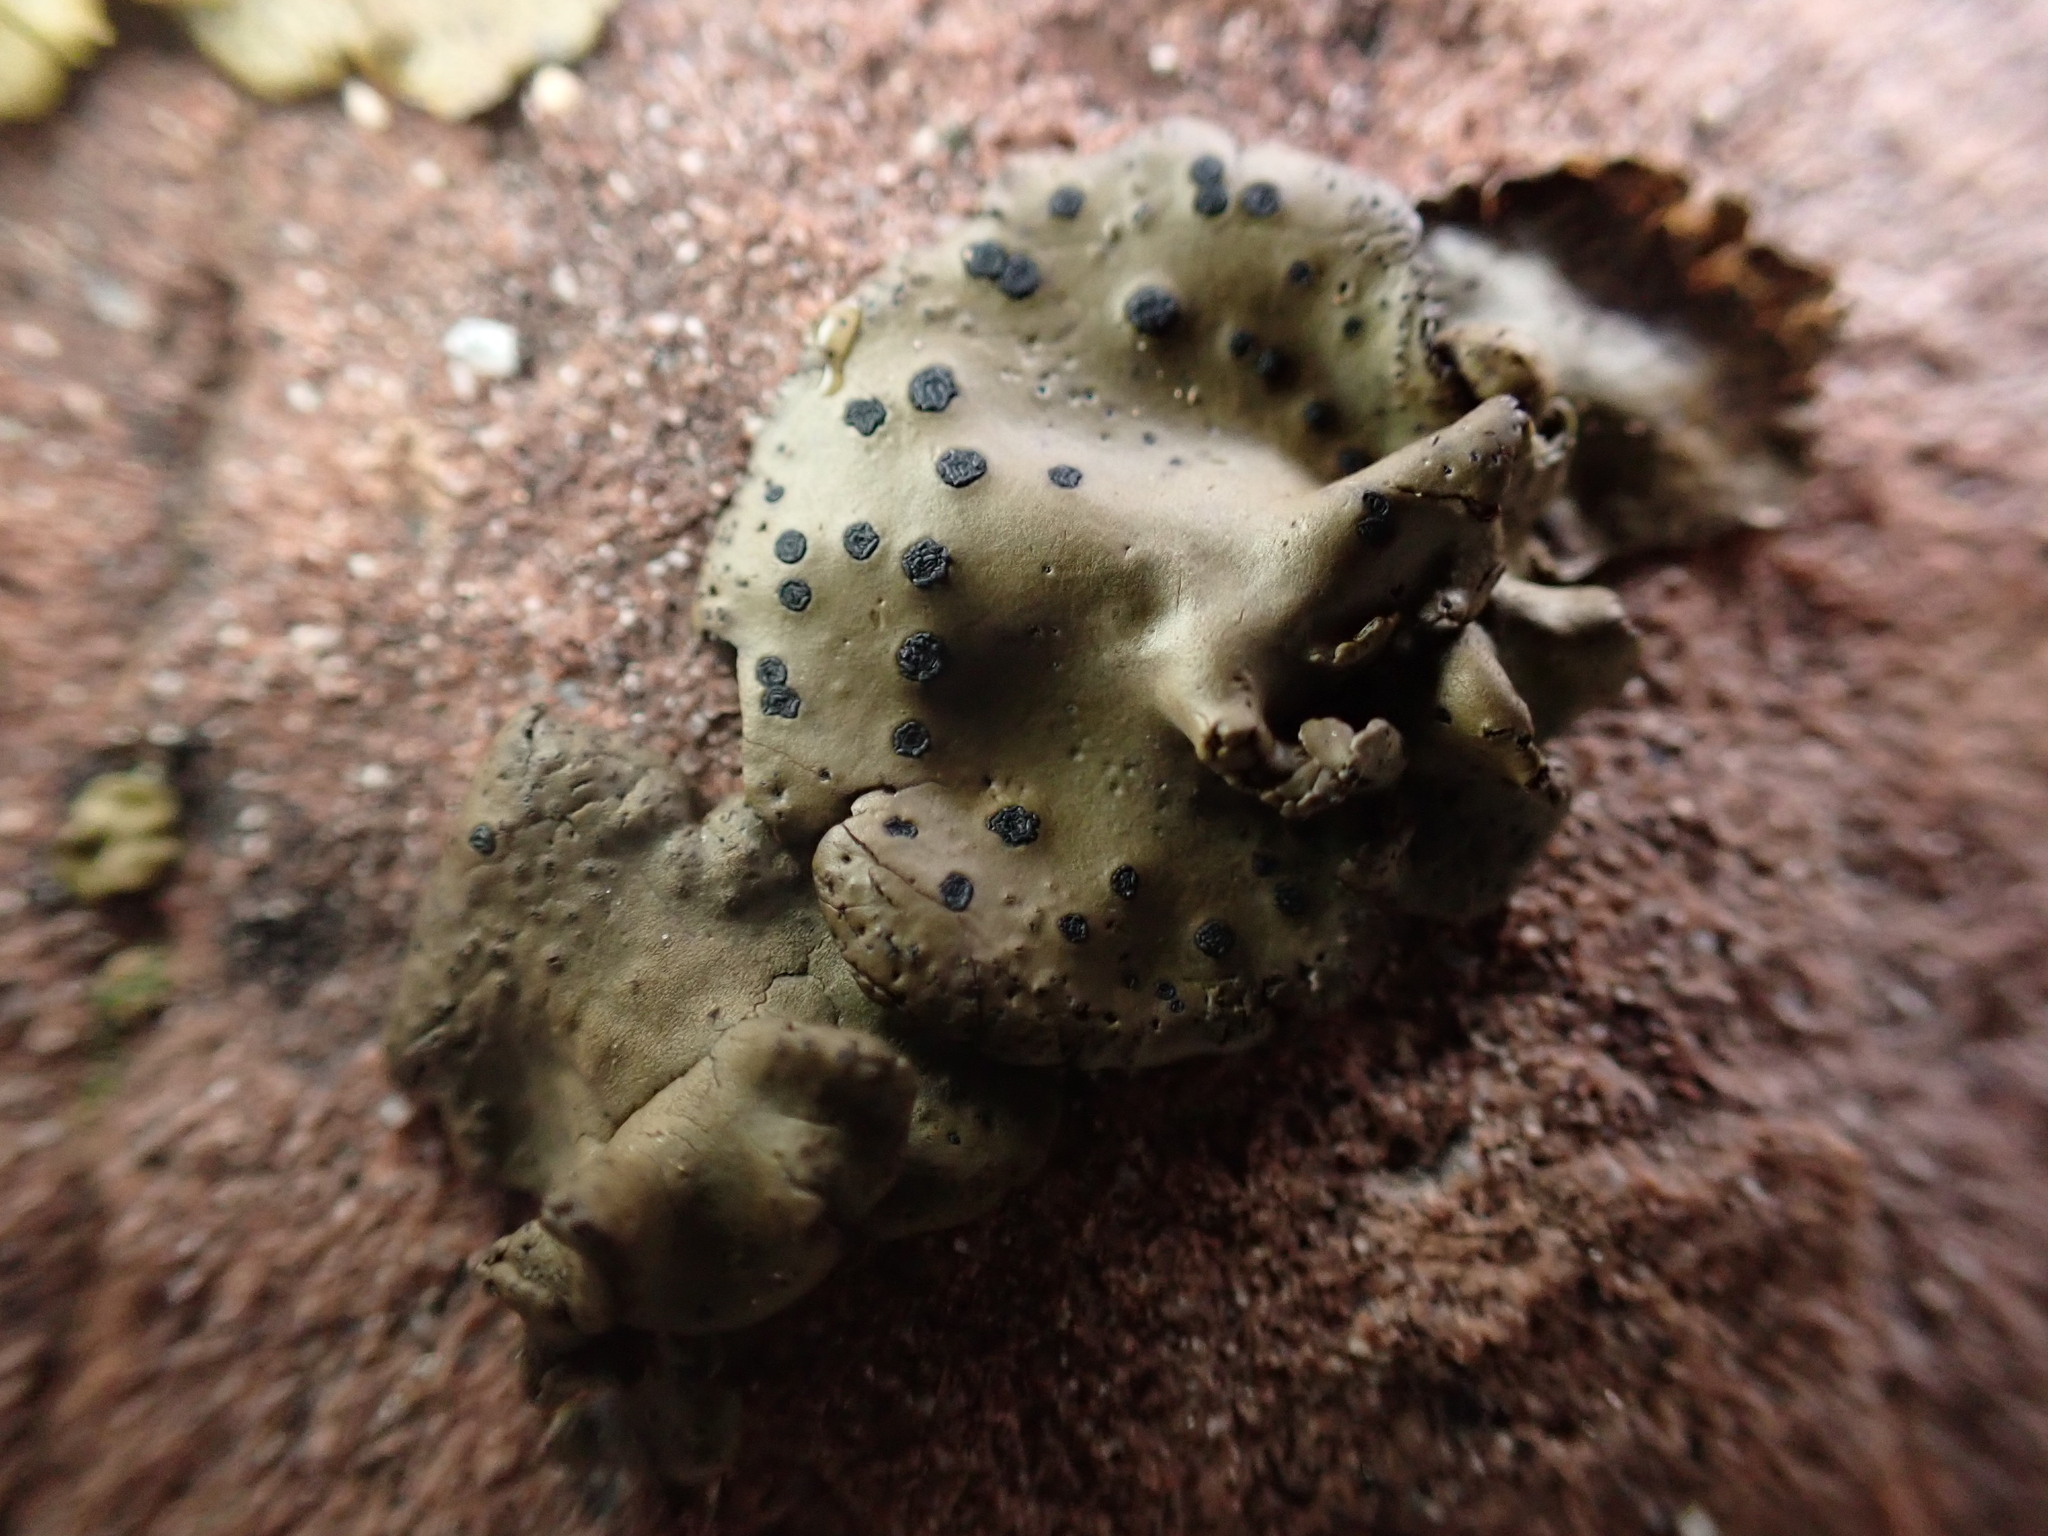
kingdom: Fungi
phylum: Ascomycota
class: Lecanoromycetes
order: Umbilicariales
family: Umbilicariaceae
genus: Umbilicaria
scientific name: Umbilicaria phaea
